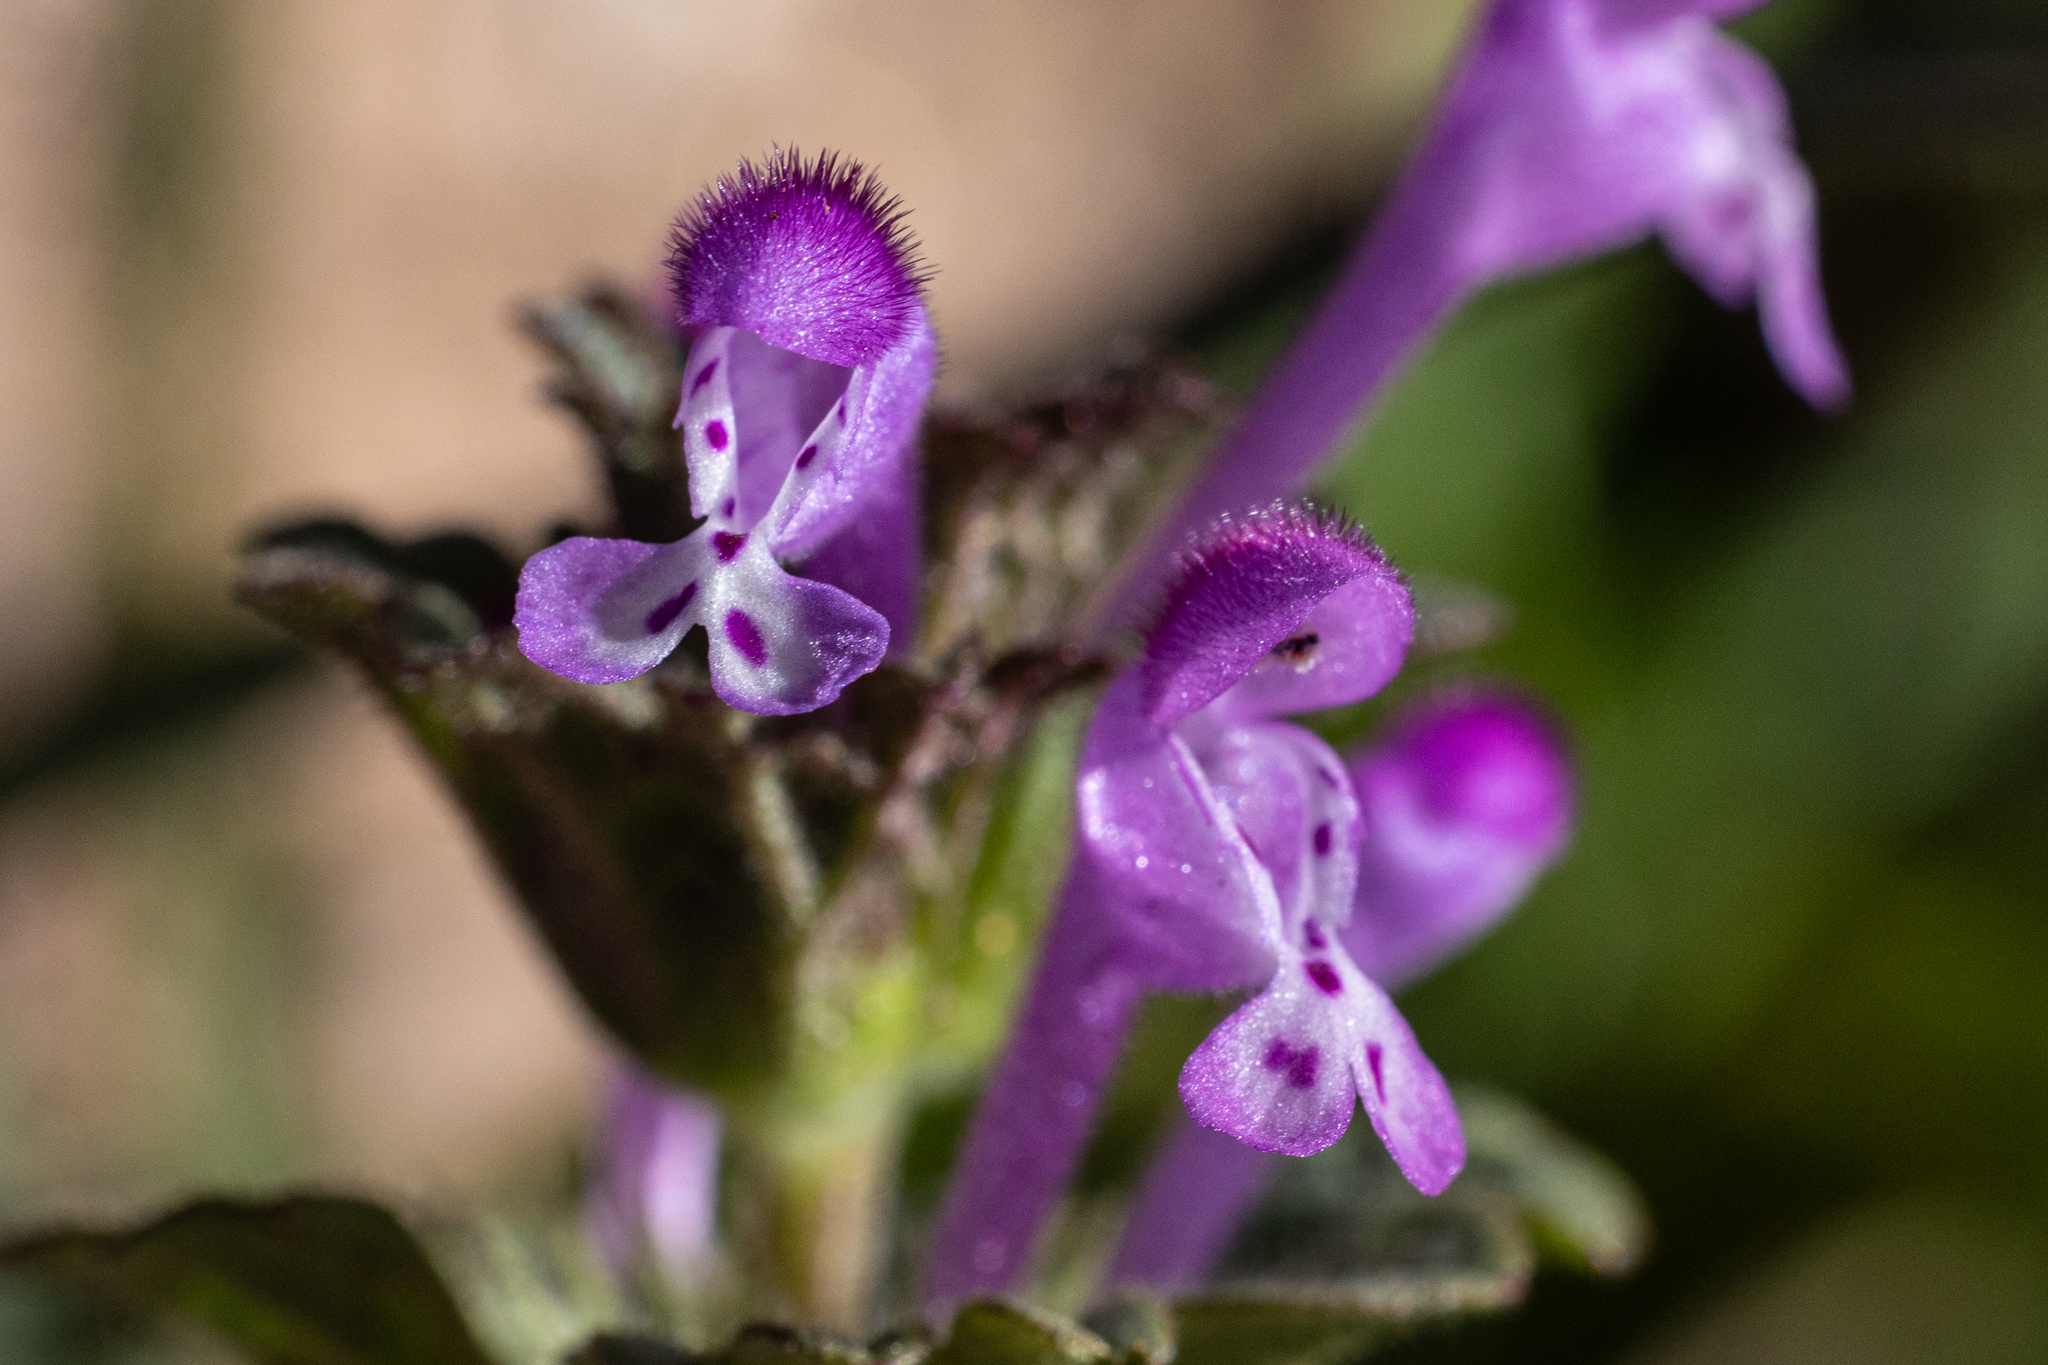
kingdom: Plantae
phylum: Tracheophyta
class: Magnoliopsida
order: Lamiales
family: Lamiaceae
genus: Lamium
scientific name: Lamium amplexicaule
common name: Henbit dead-nettle
